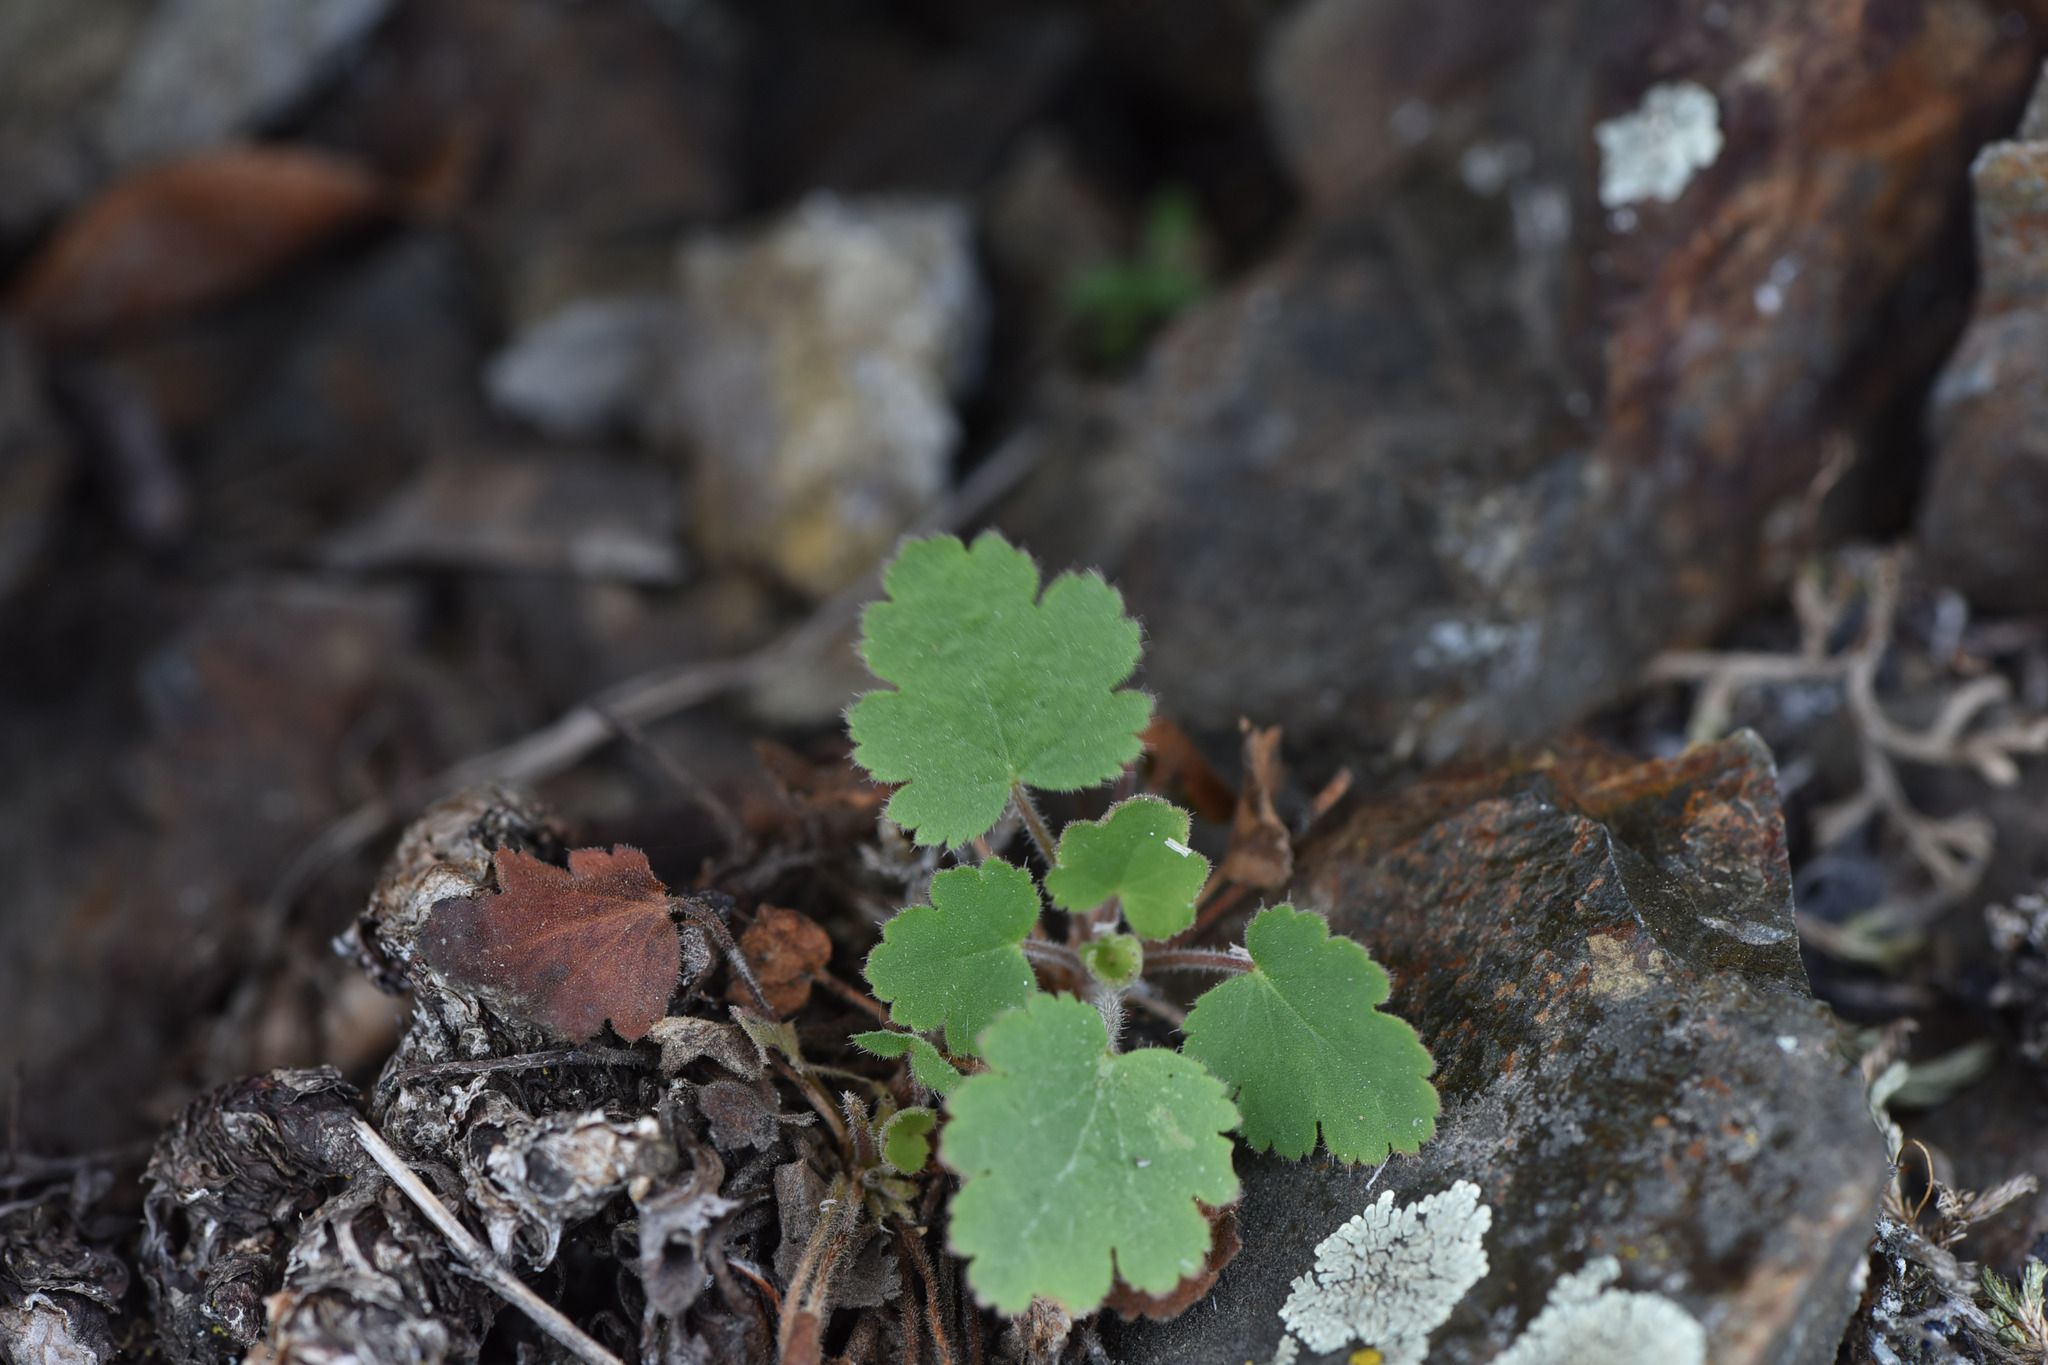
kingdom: Plantae
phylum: Tracheophyta
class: Magnoliopsida
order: Saxifragales
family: Saxifragaceae
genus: Heuchera
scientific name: Heuchera cylindrica
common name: Mat alumroot
